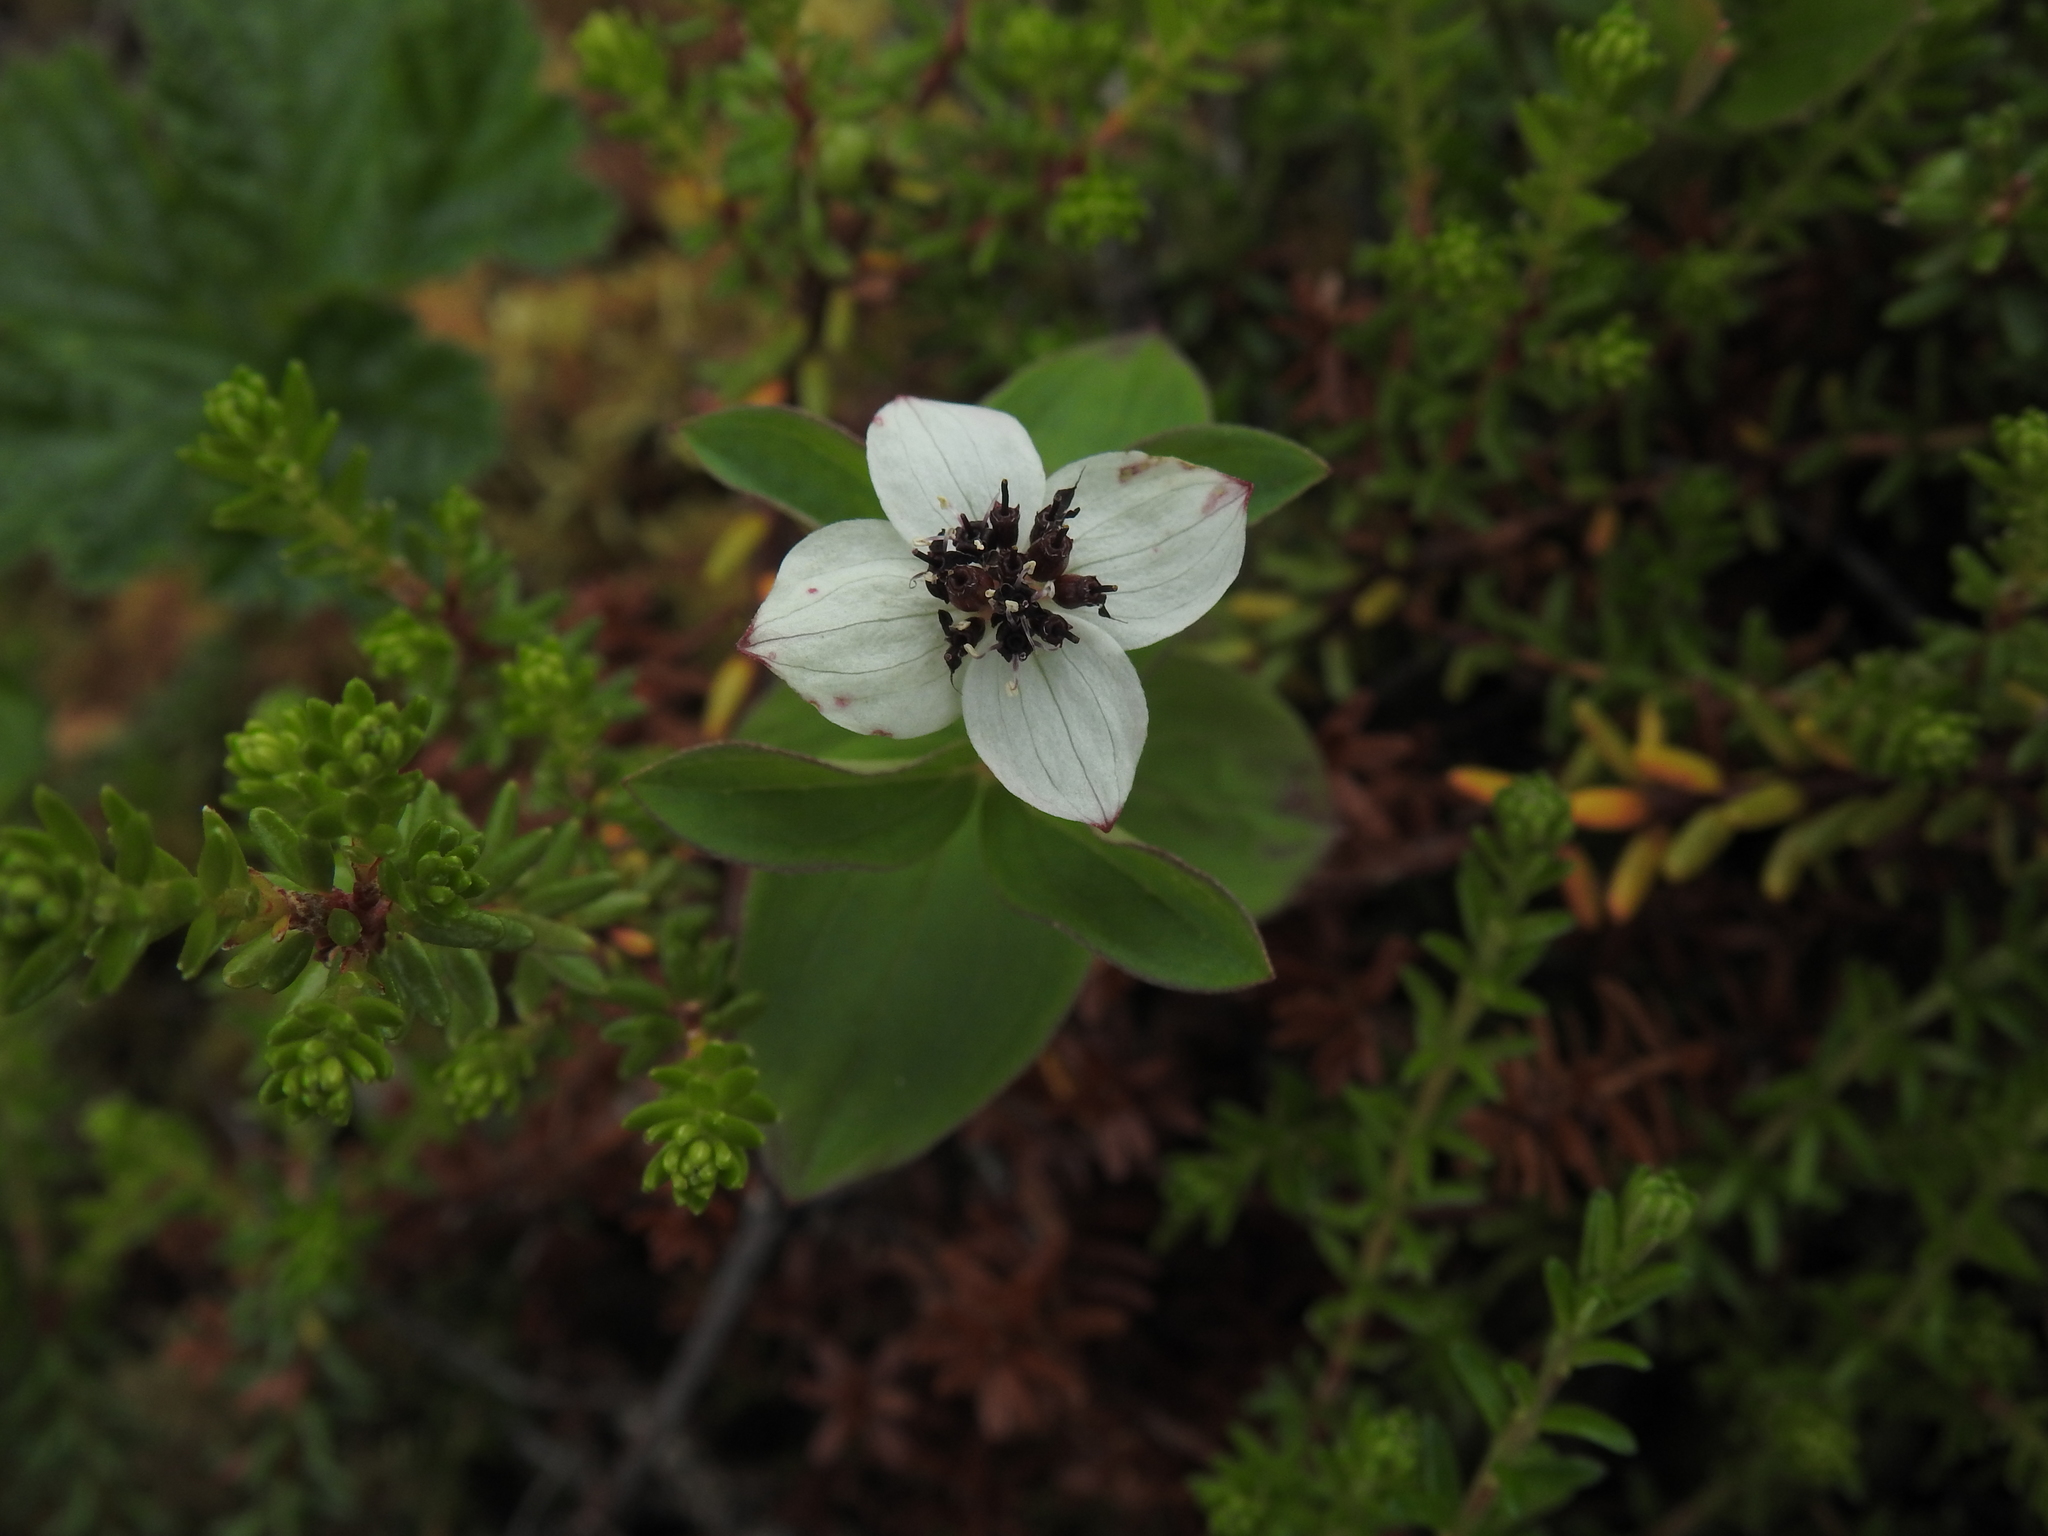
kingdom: Plantae
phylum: Tracheophyta
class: Magnoliopsida
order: Cornales
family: Cornaceae
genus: Cornus
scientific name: Cornus suecica
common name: Dwarf cornel
